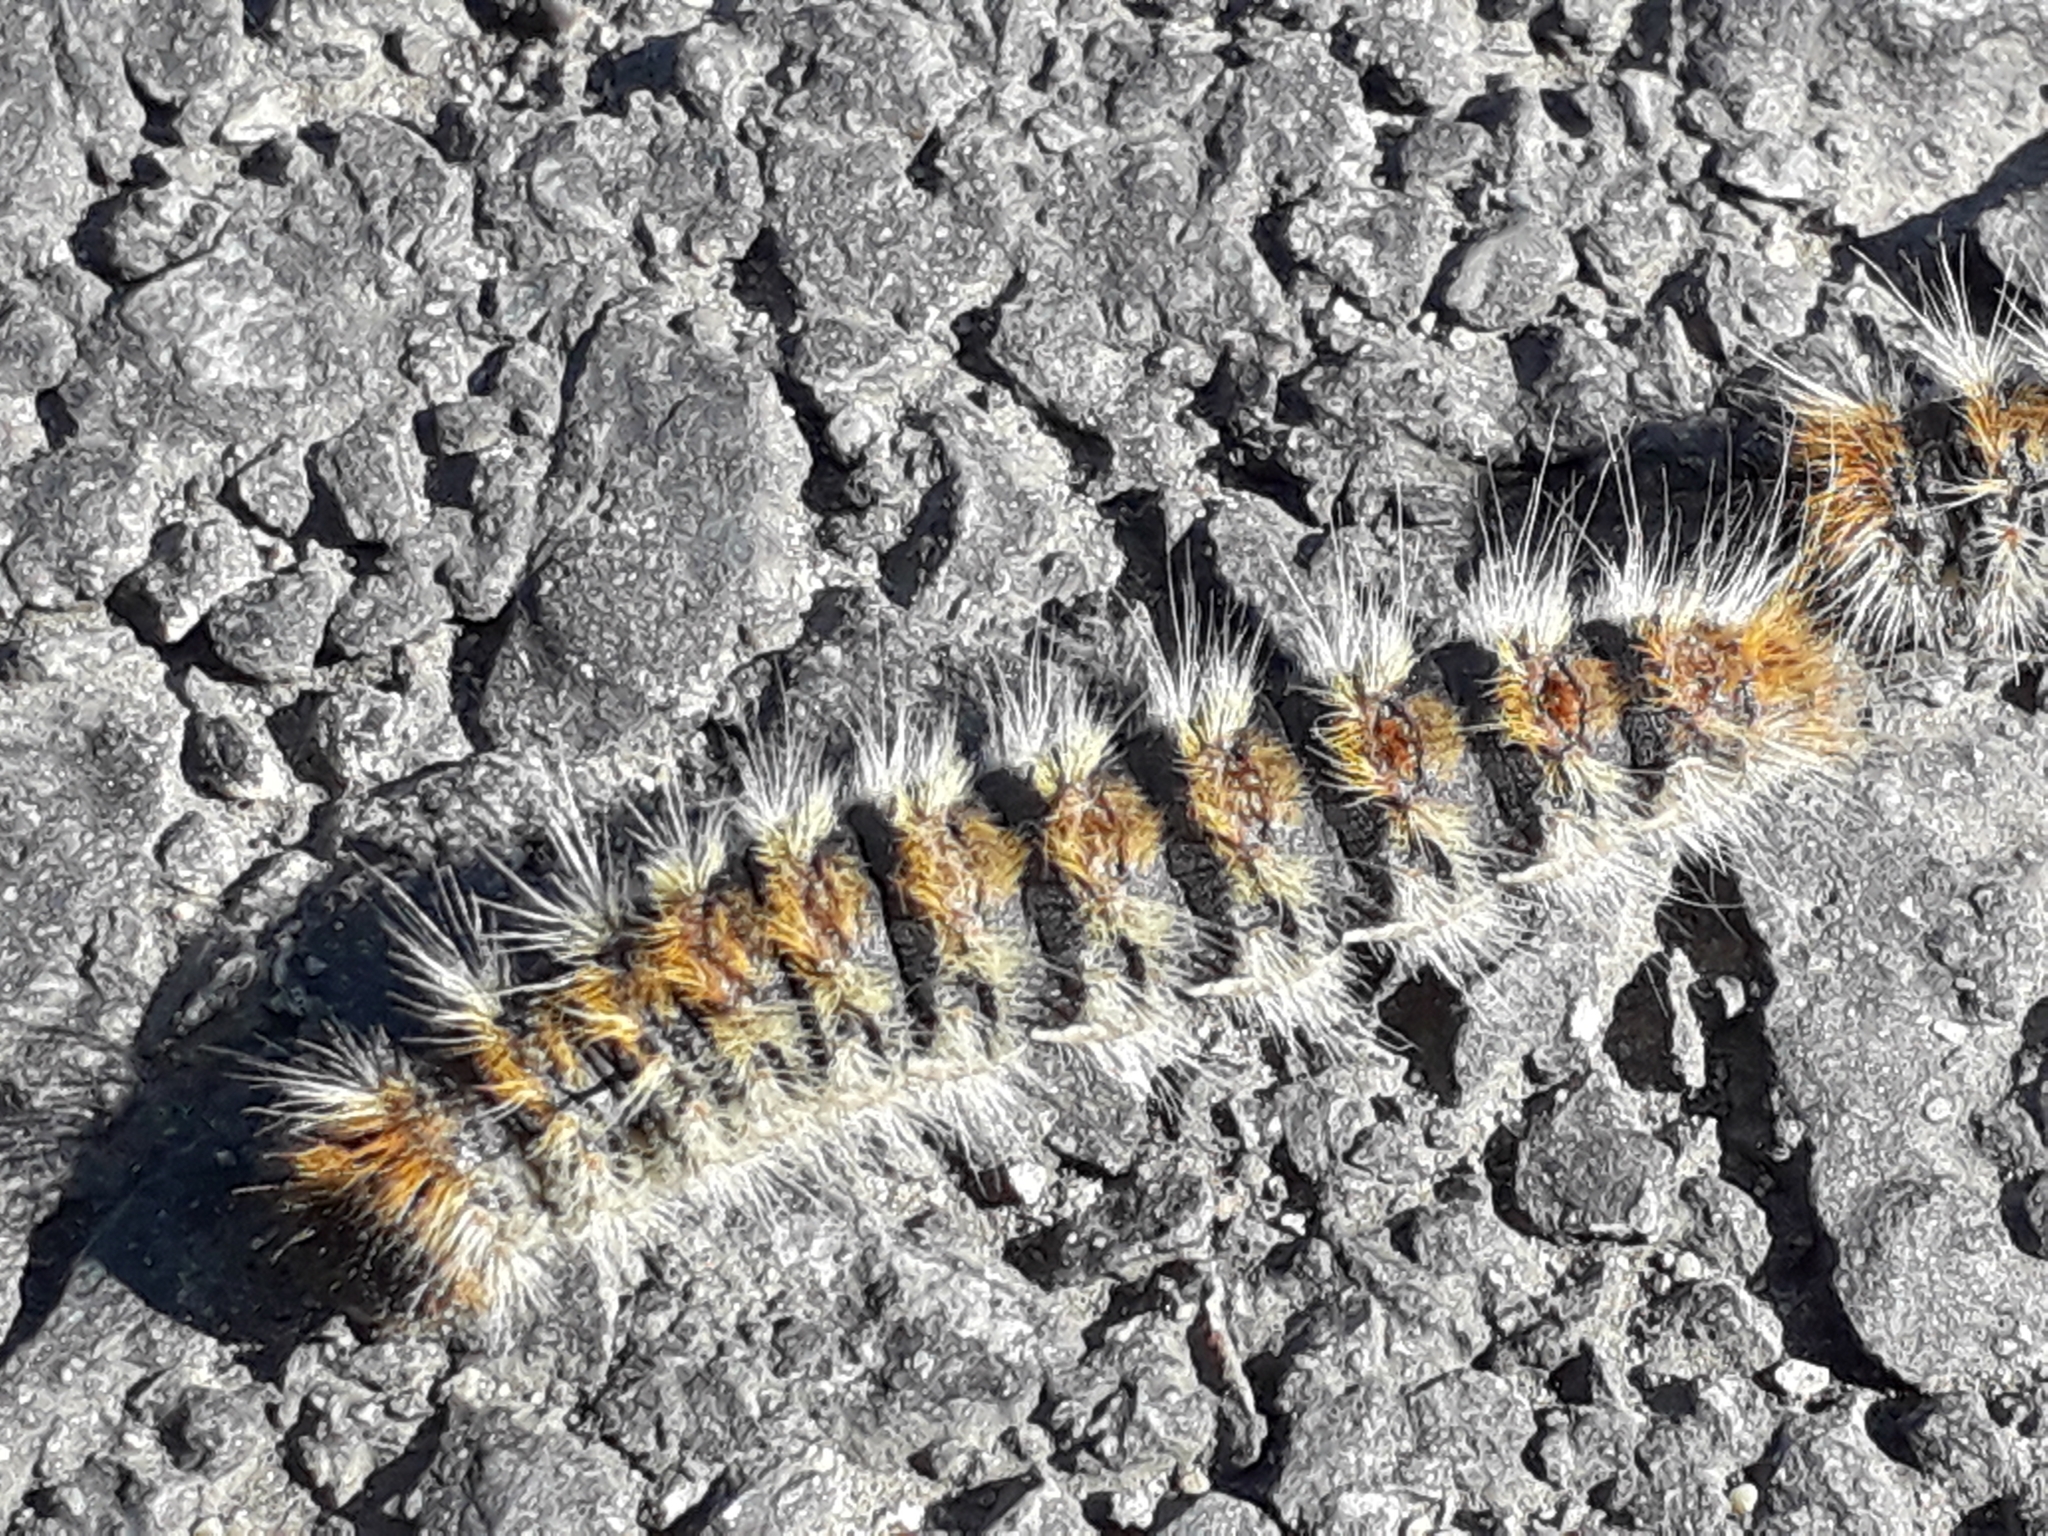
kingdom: Animalia
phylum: Arthropoda
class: Insecta
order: Lepidoptera
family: Notodontidae
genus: Thaumetopoea
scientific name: Thaumetopoea pityocampa
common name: Pine processionary
